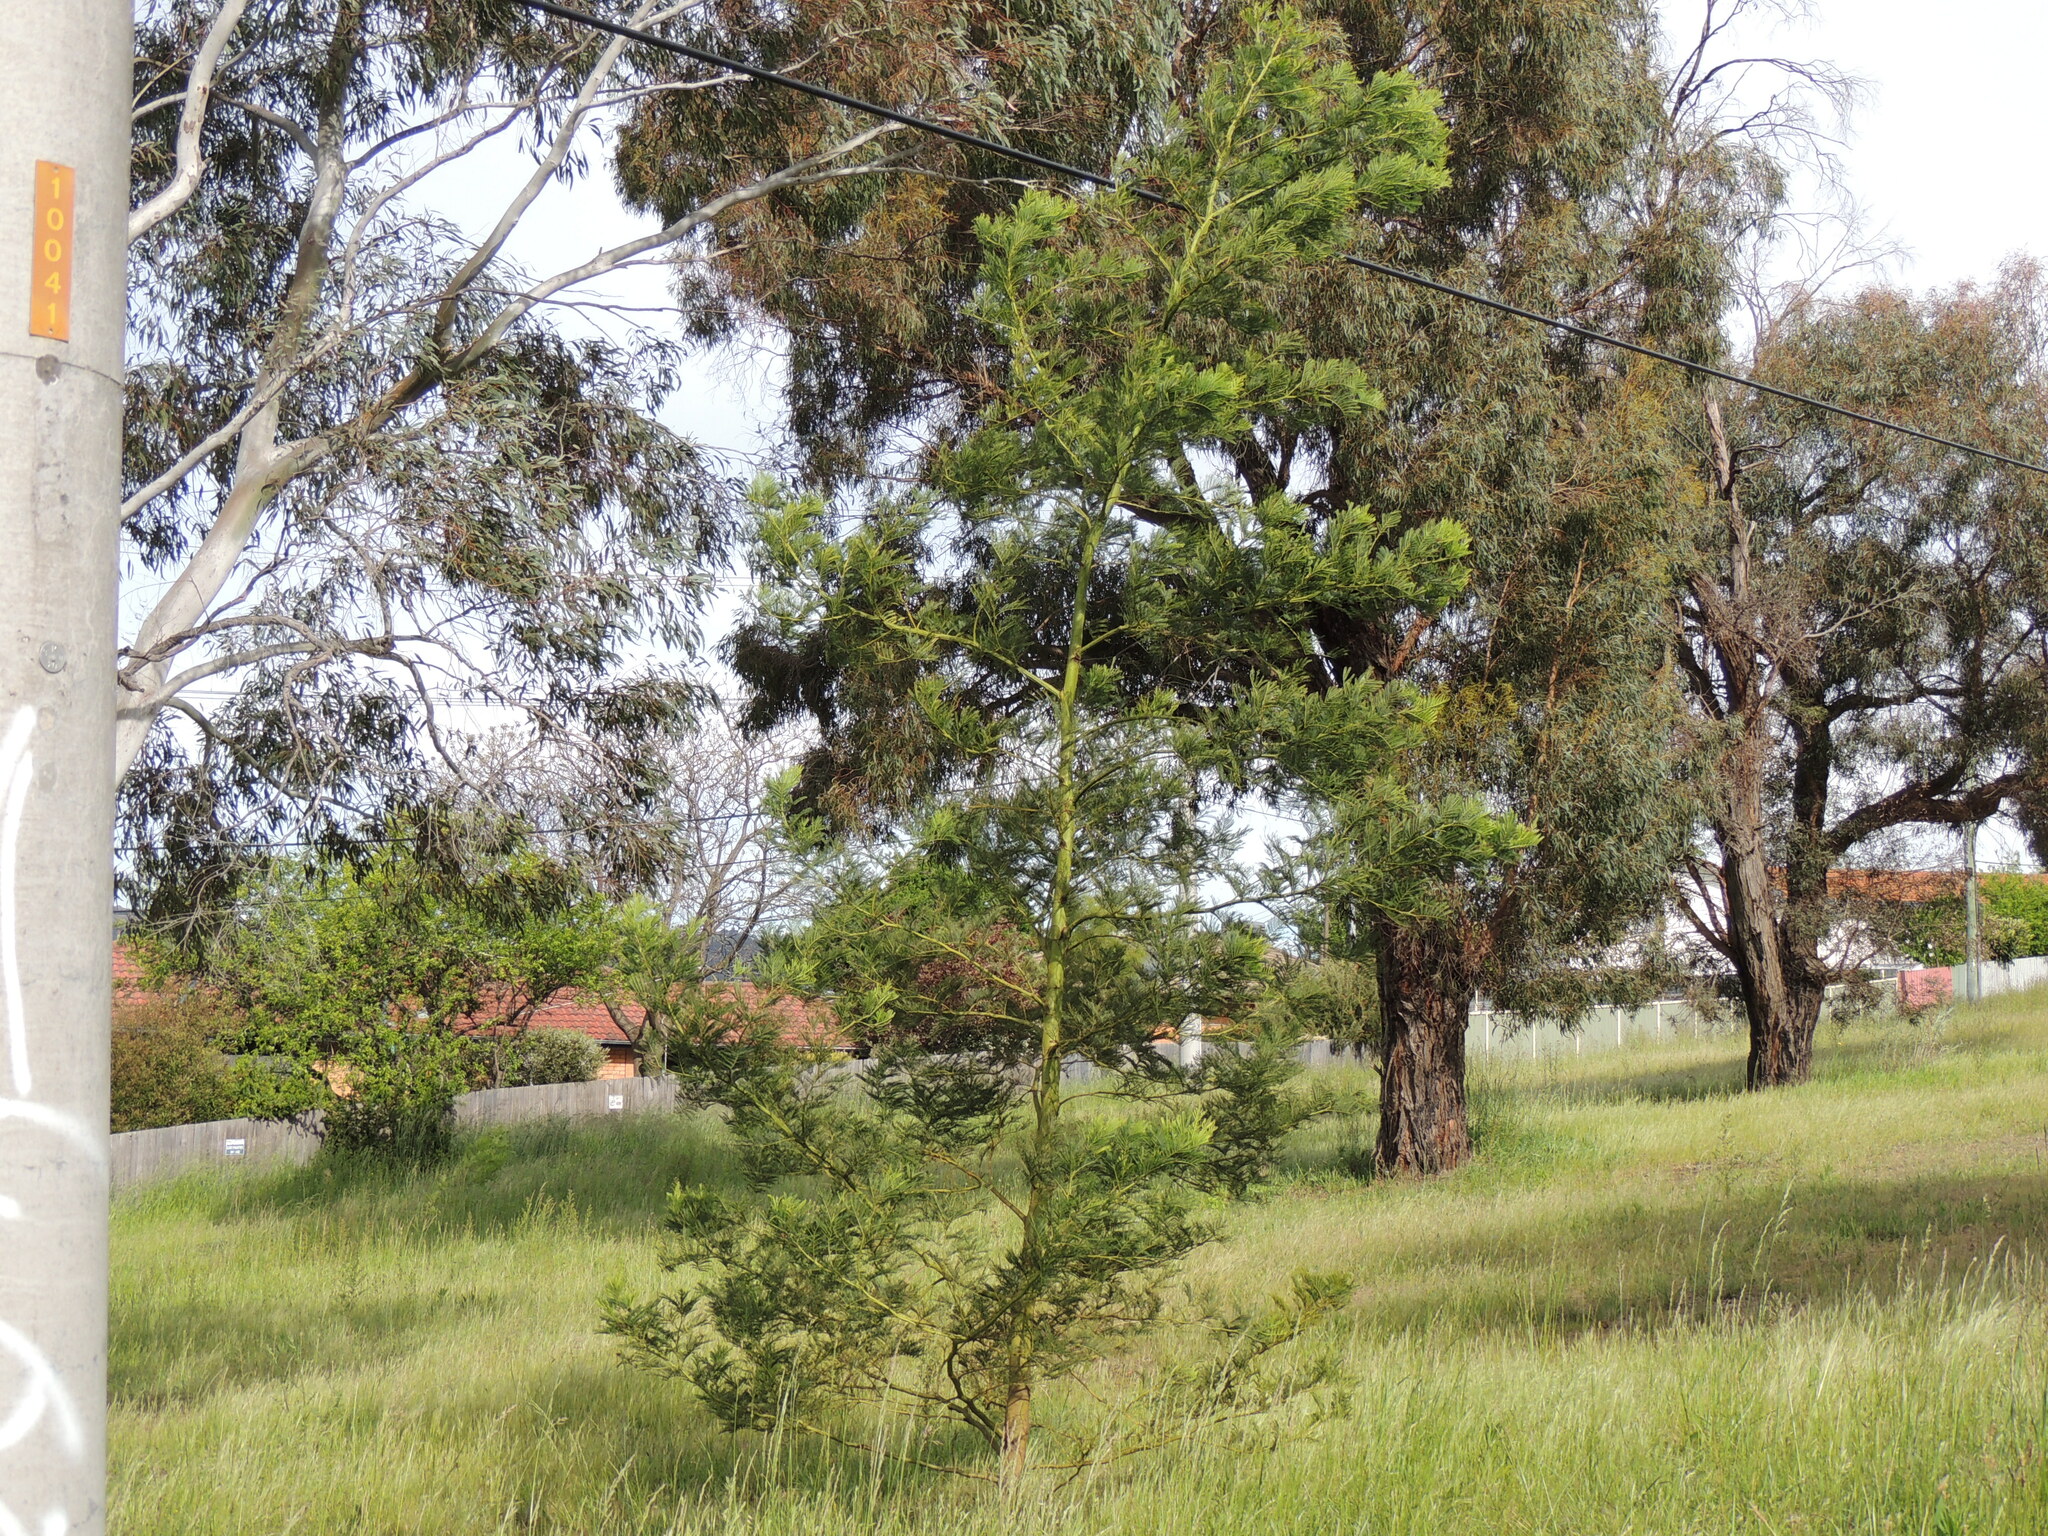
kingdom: Plantae
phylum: Tracheophyta
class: Magnoliopsida
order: Fabales
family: Fabaceae
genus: Acacia
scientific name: Acacia
